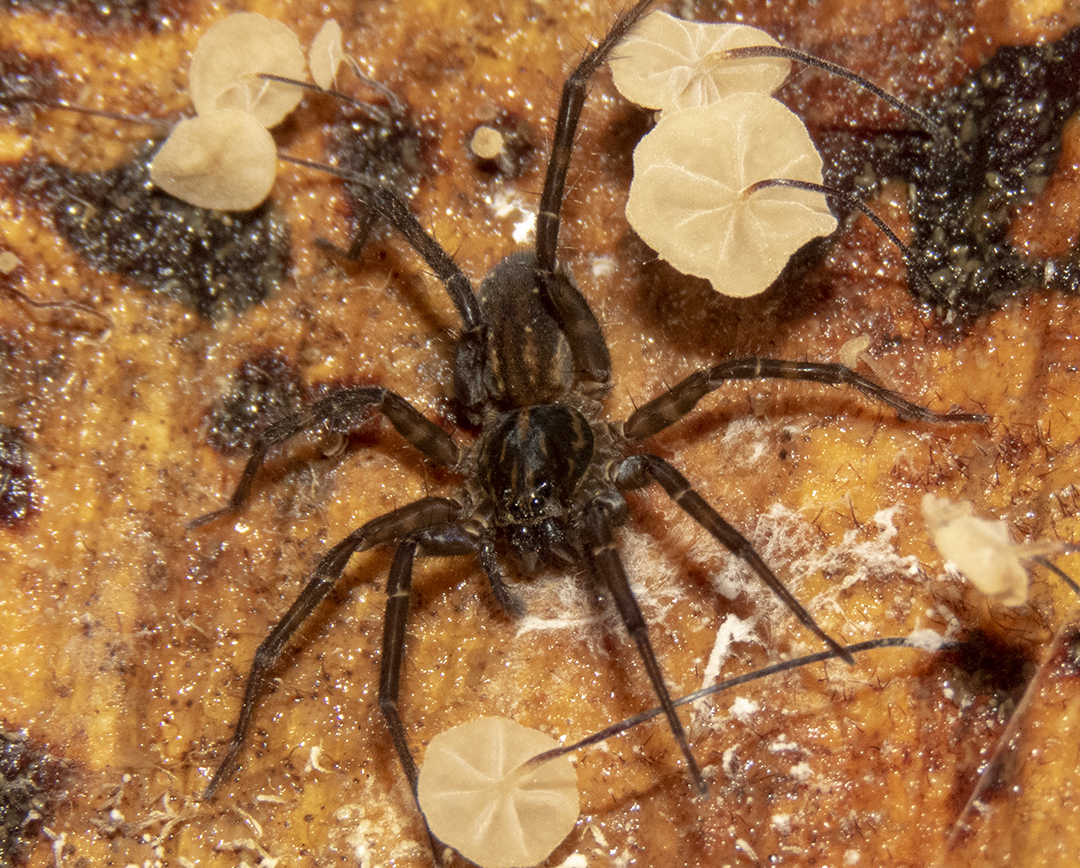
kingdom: Animalia
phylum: Arthropoda
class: Arachnida
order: Araneae
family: Lycosidae
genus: Allotrochosina
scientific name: Allotrochosina schauinslandi
